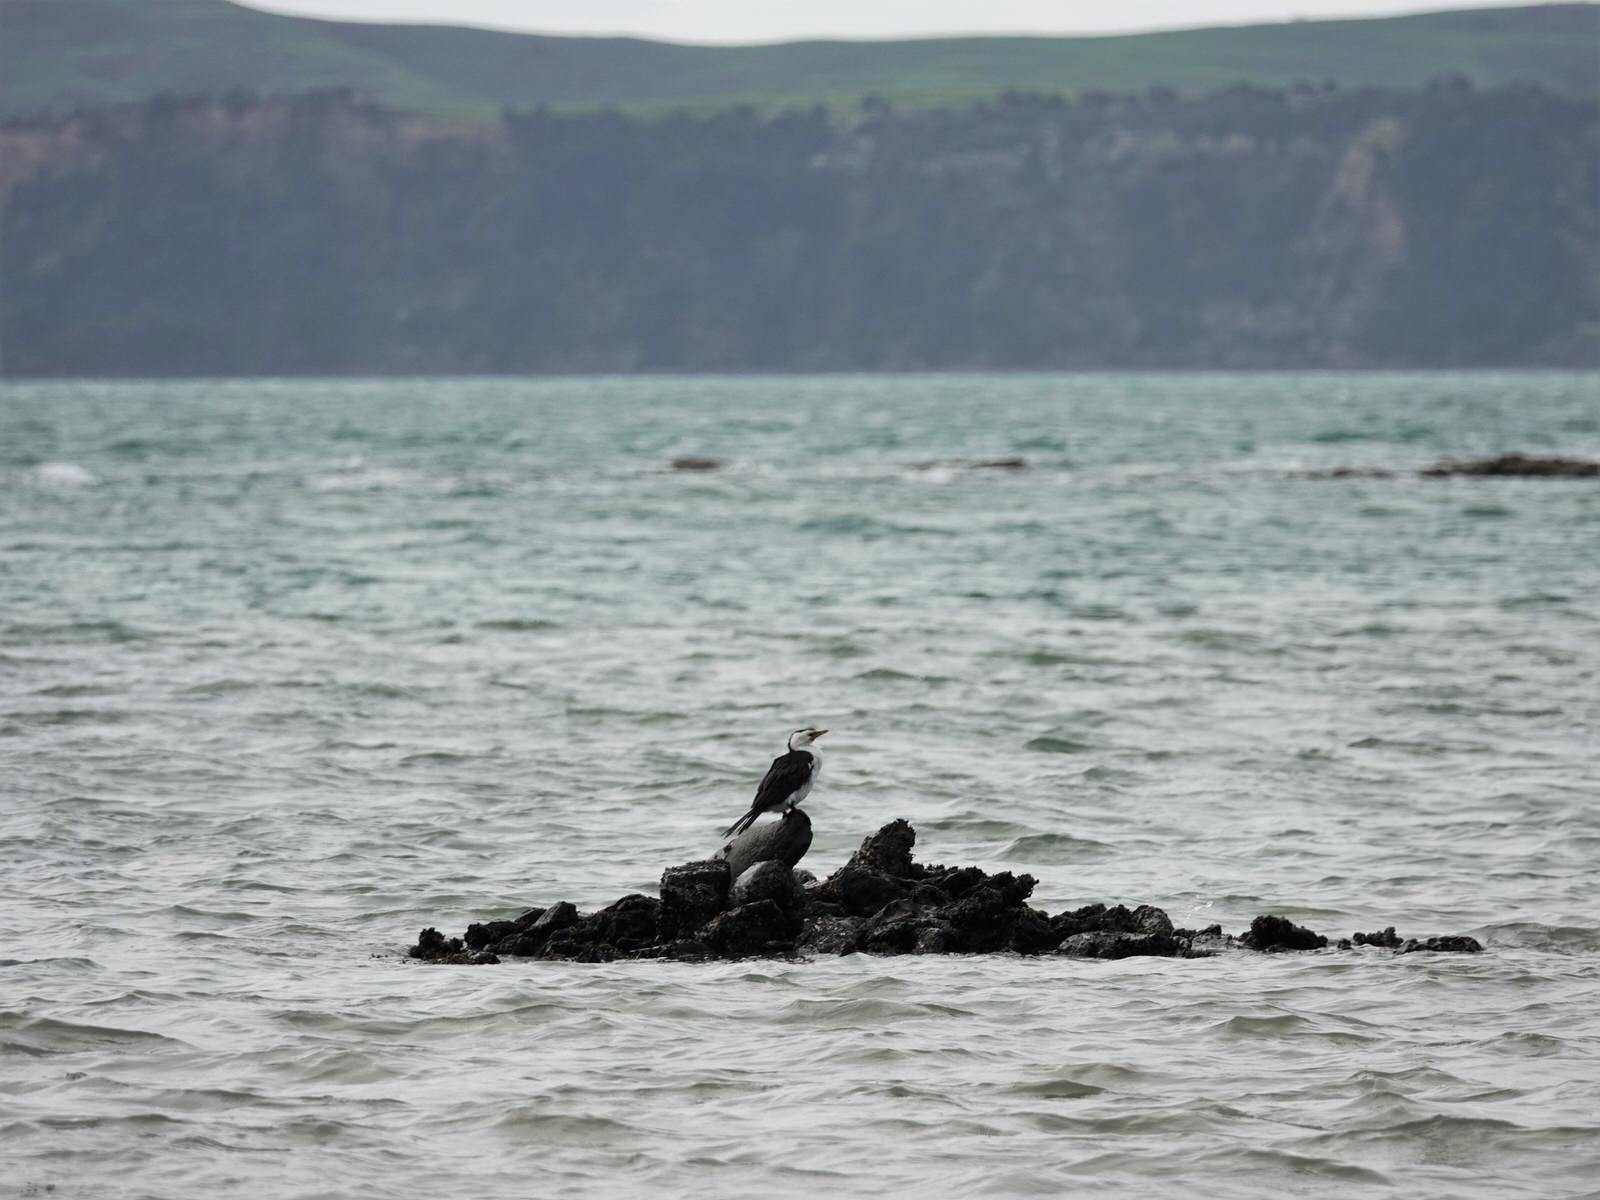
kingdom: Animalia
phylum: Chordata
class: Aves
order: Suliformes
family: Phalacrocoracidae
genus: Microcarbo
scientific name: Microcarbo melanoleucos
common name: Little pied cormorant
